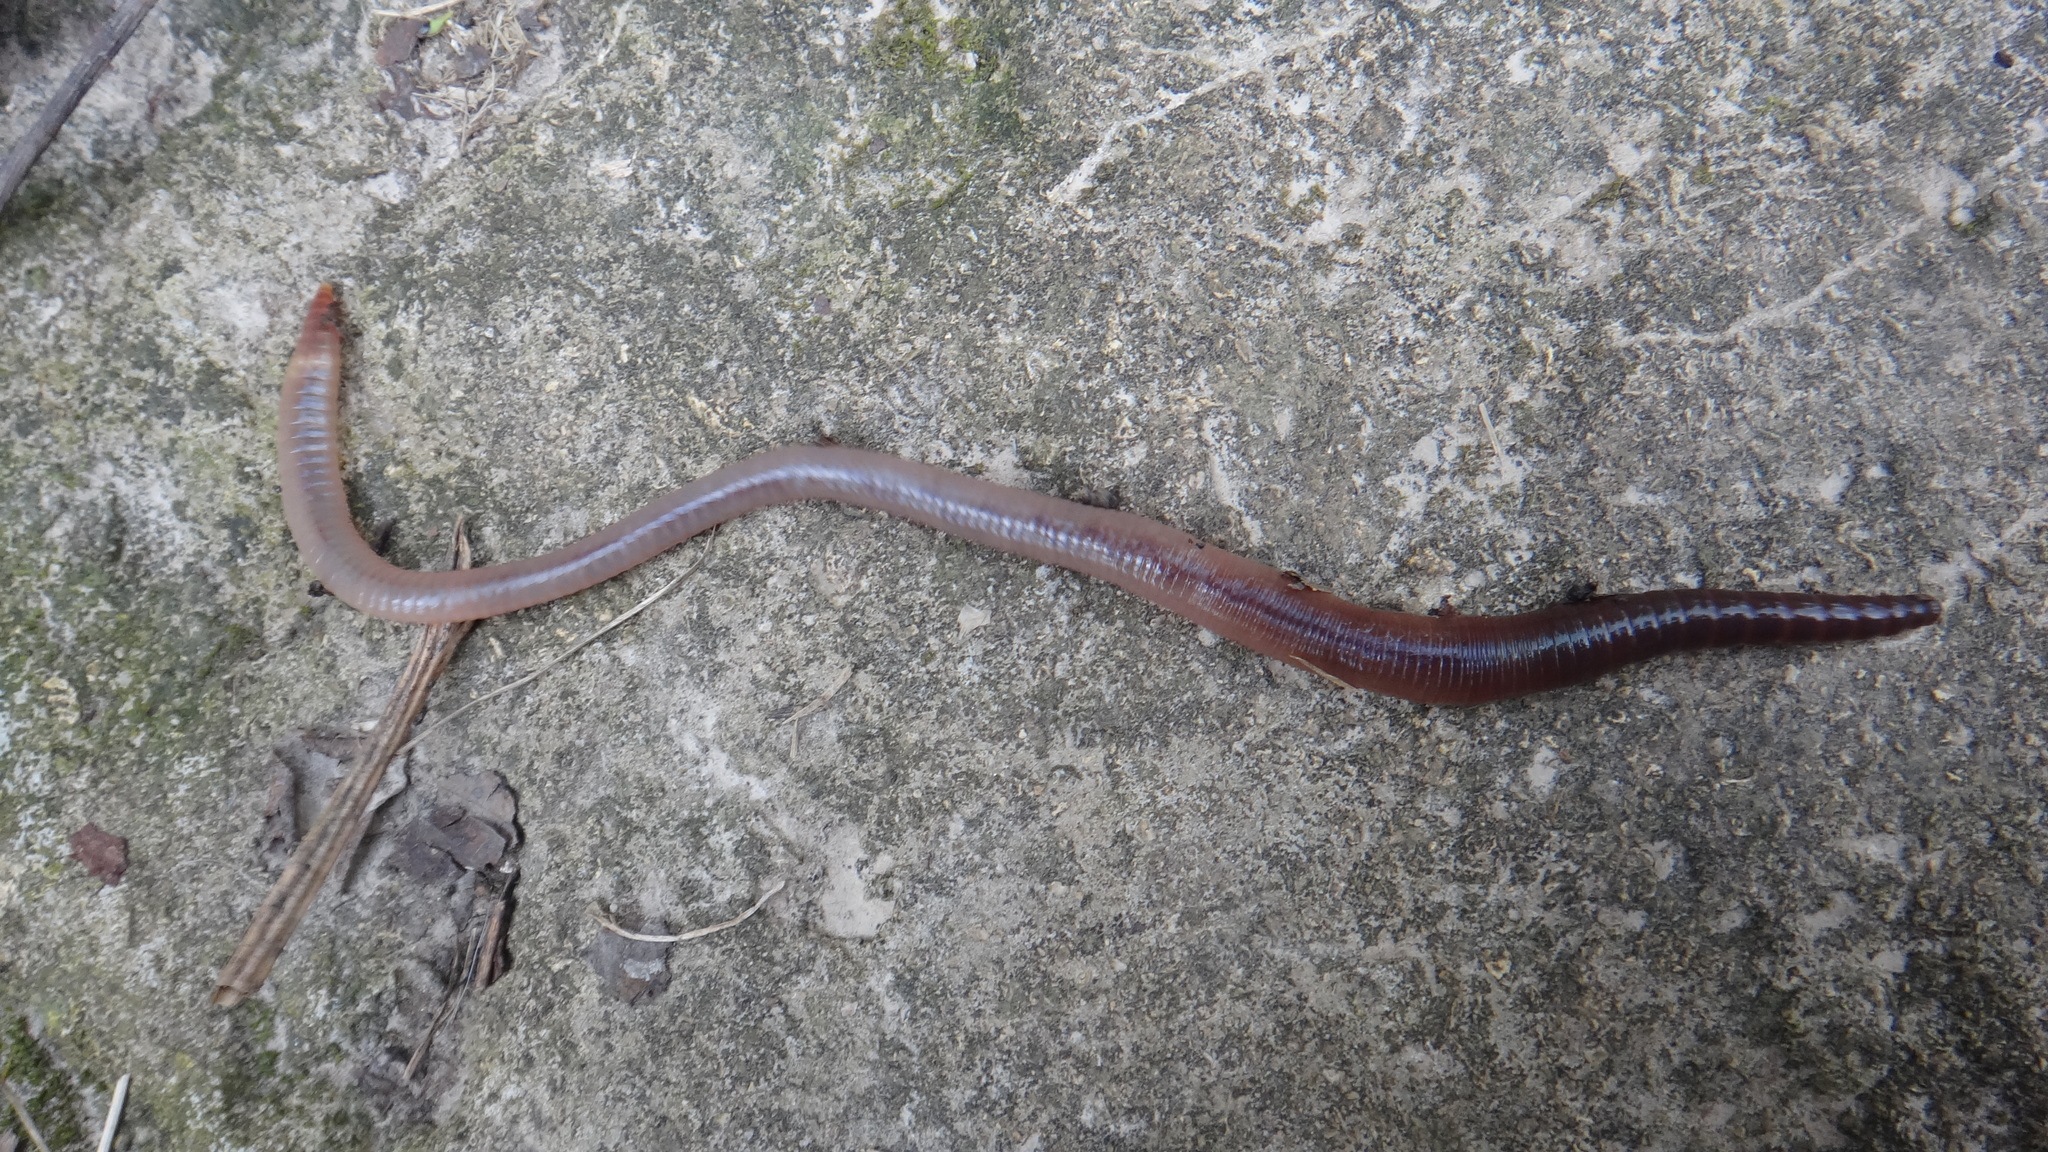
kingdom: Animalia
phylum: Annelida
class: Clitellata
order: Crassiclitellata
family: Lumbricidae
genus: Lumbricus
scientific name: Lumbricus terrestris
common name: Common earthworm
